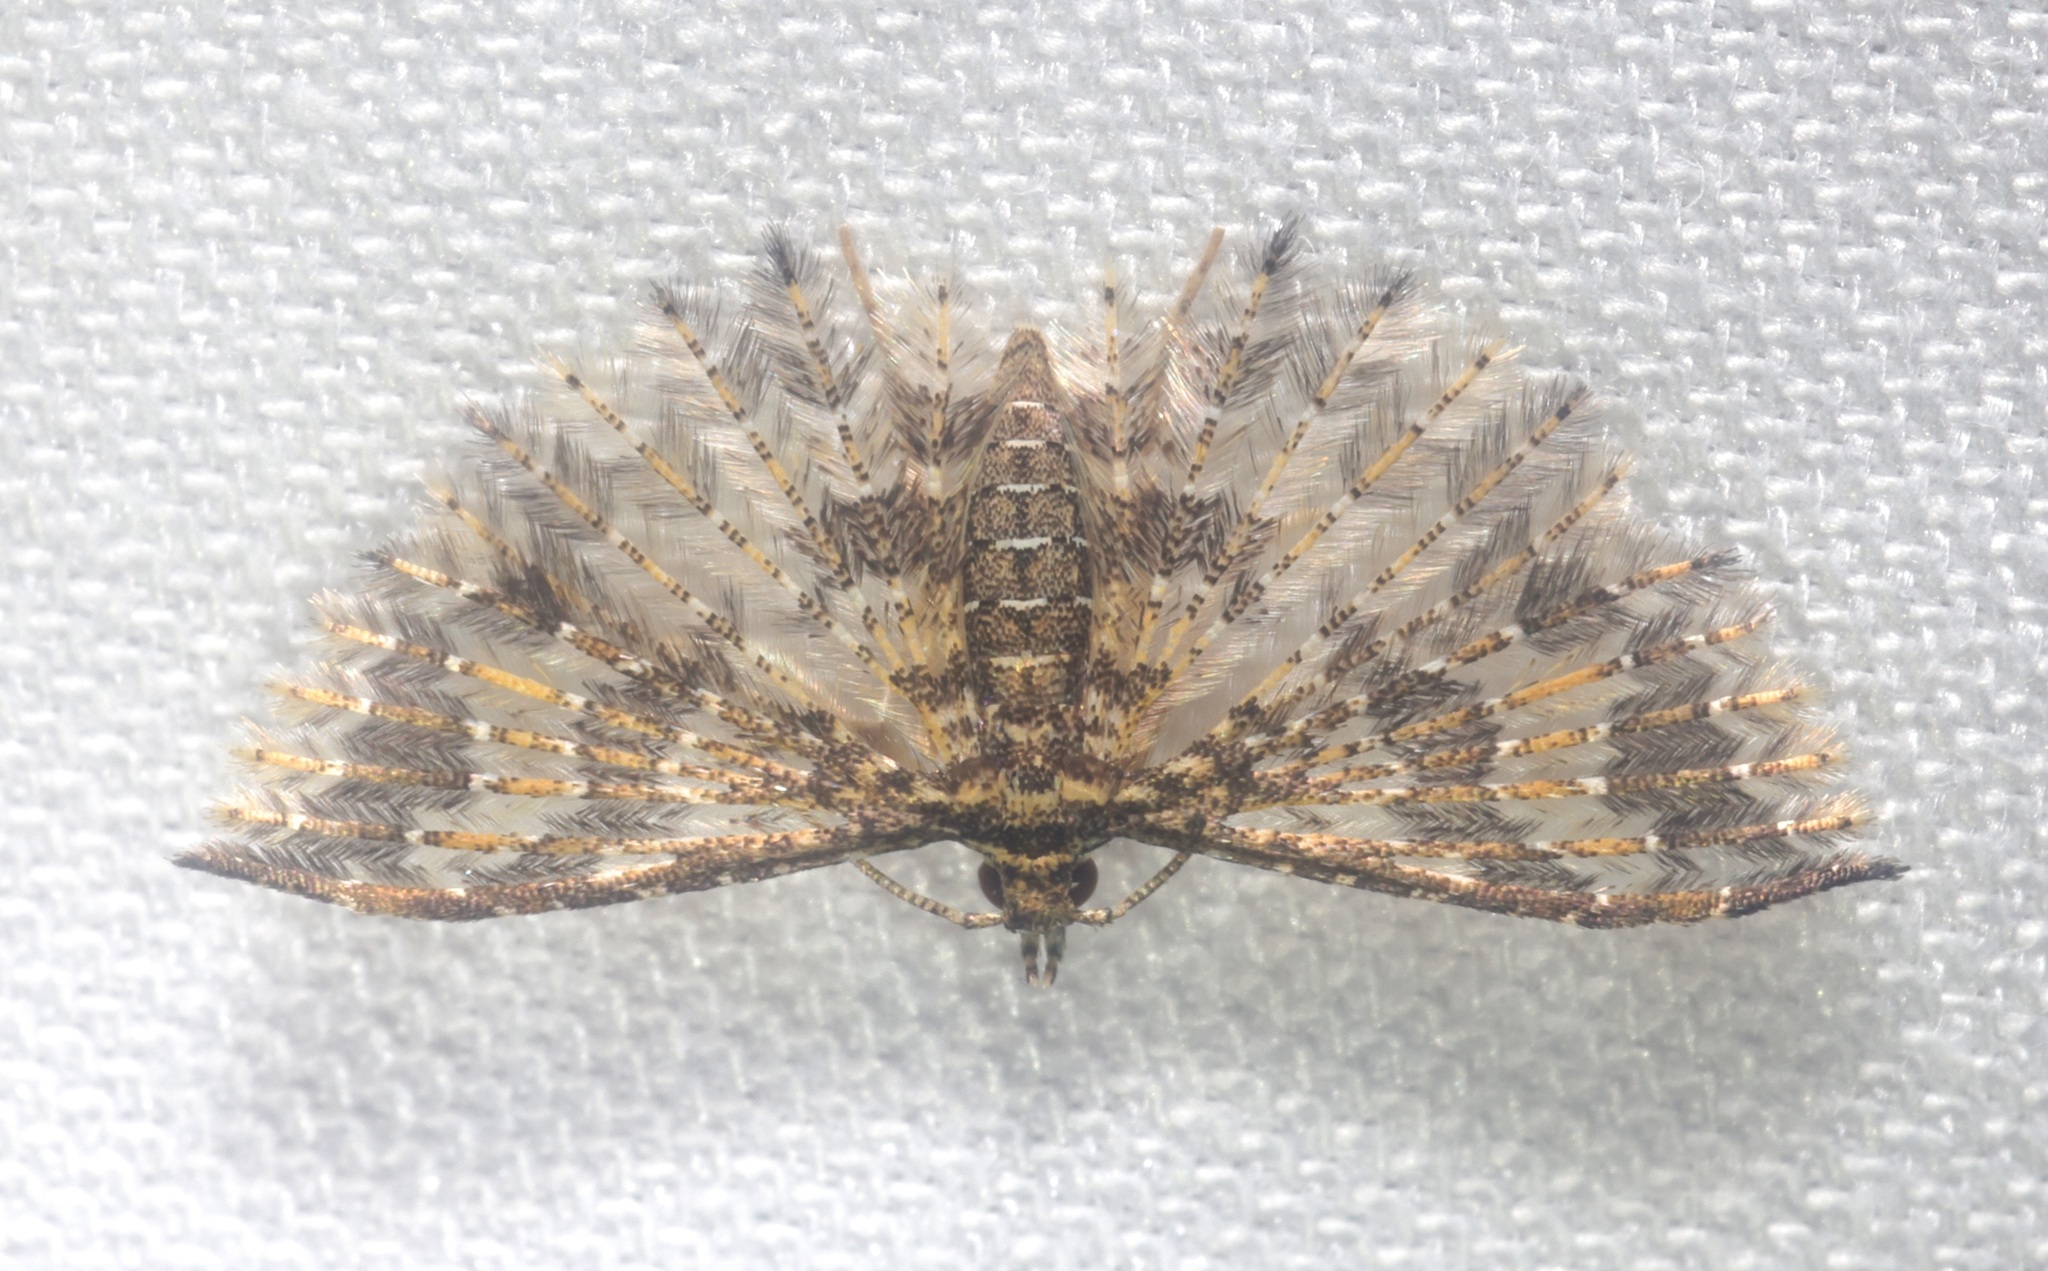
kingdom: Animalia
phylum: Arthropoda
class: Insecta
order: Lepidoptera
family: Alucitidae
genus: Pterotopteryx
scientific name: Pterotopteryx spilodesma
